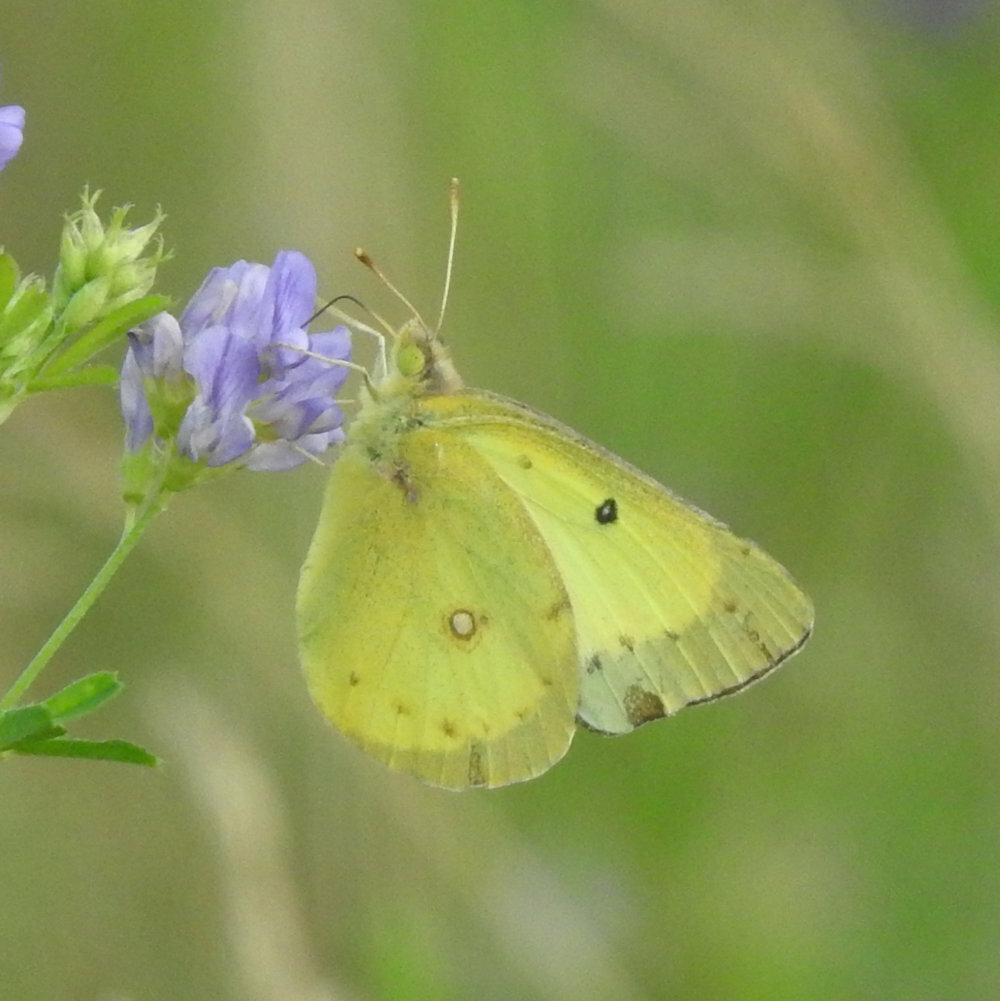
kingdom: Animalia
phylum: Arthropoda
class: Insecta
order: Lepidoptera
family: Pieridae
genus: Colias
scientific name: Colias philodice
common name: Clouded sulphur
